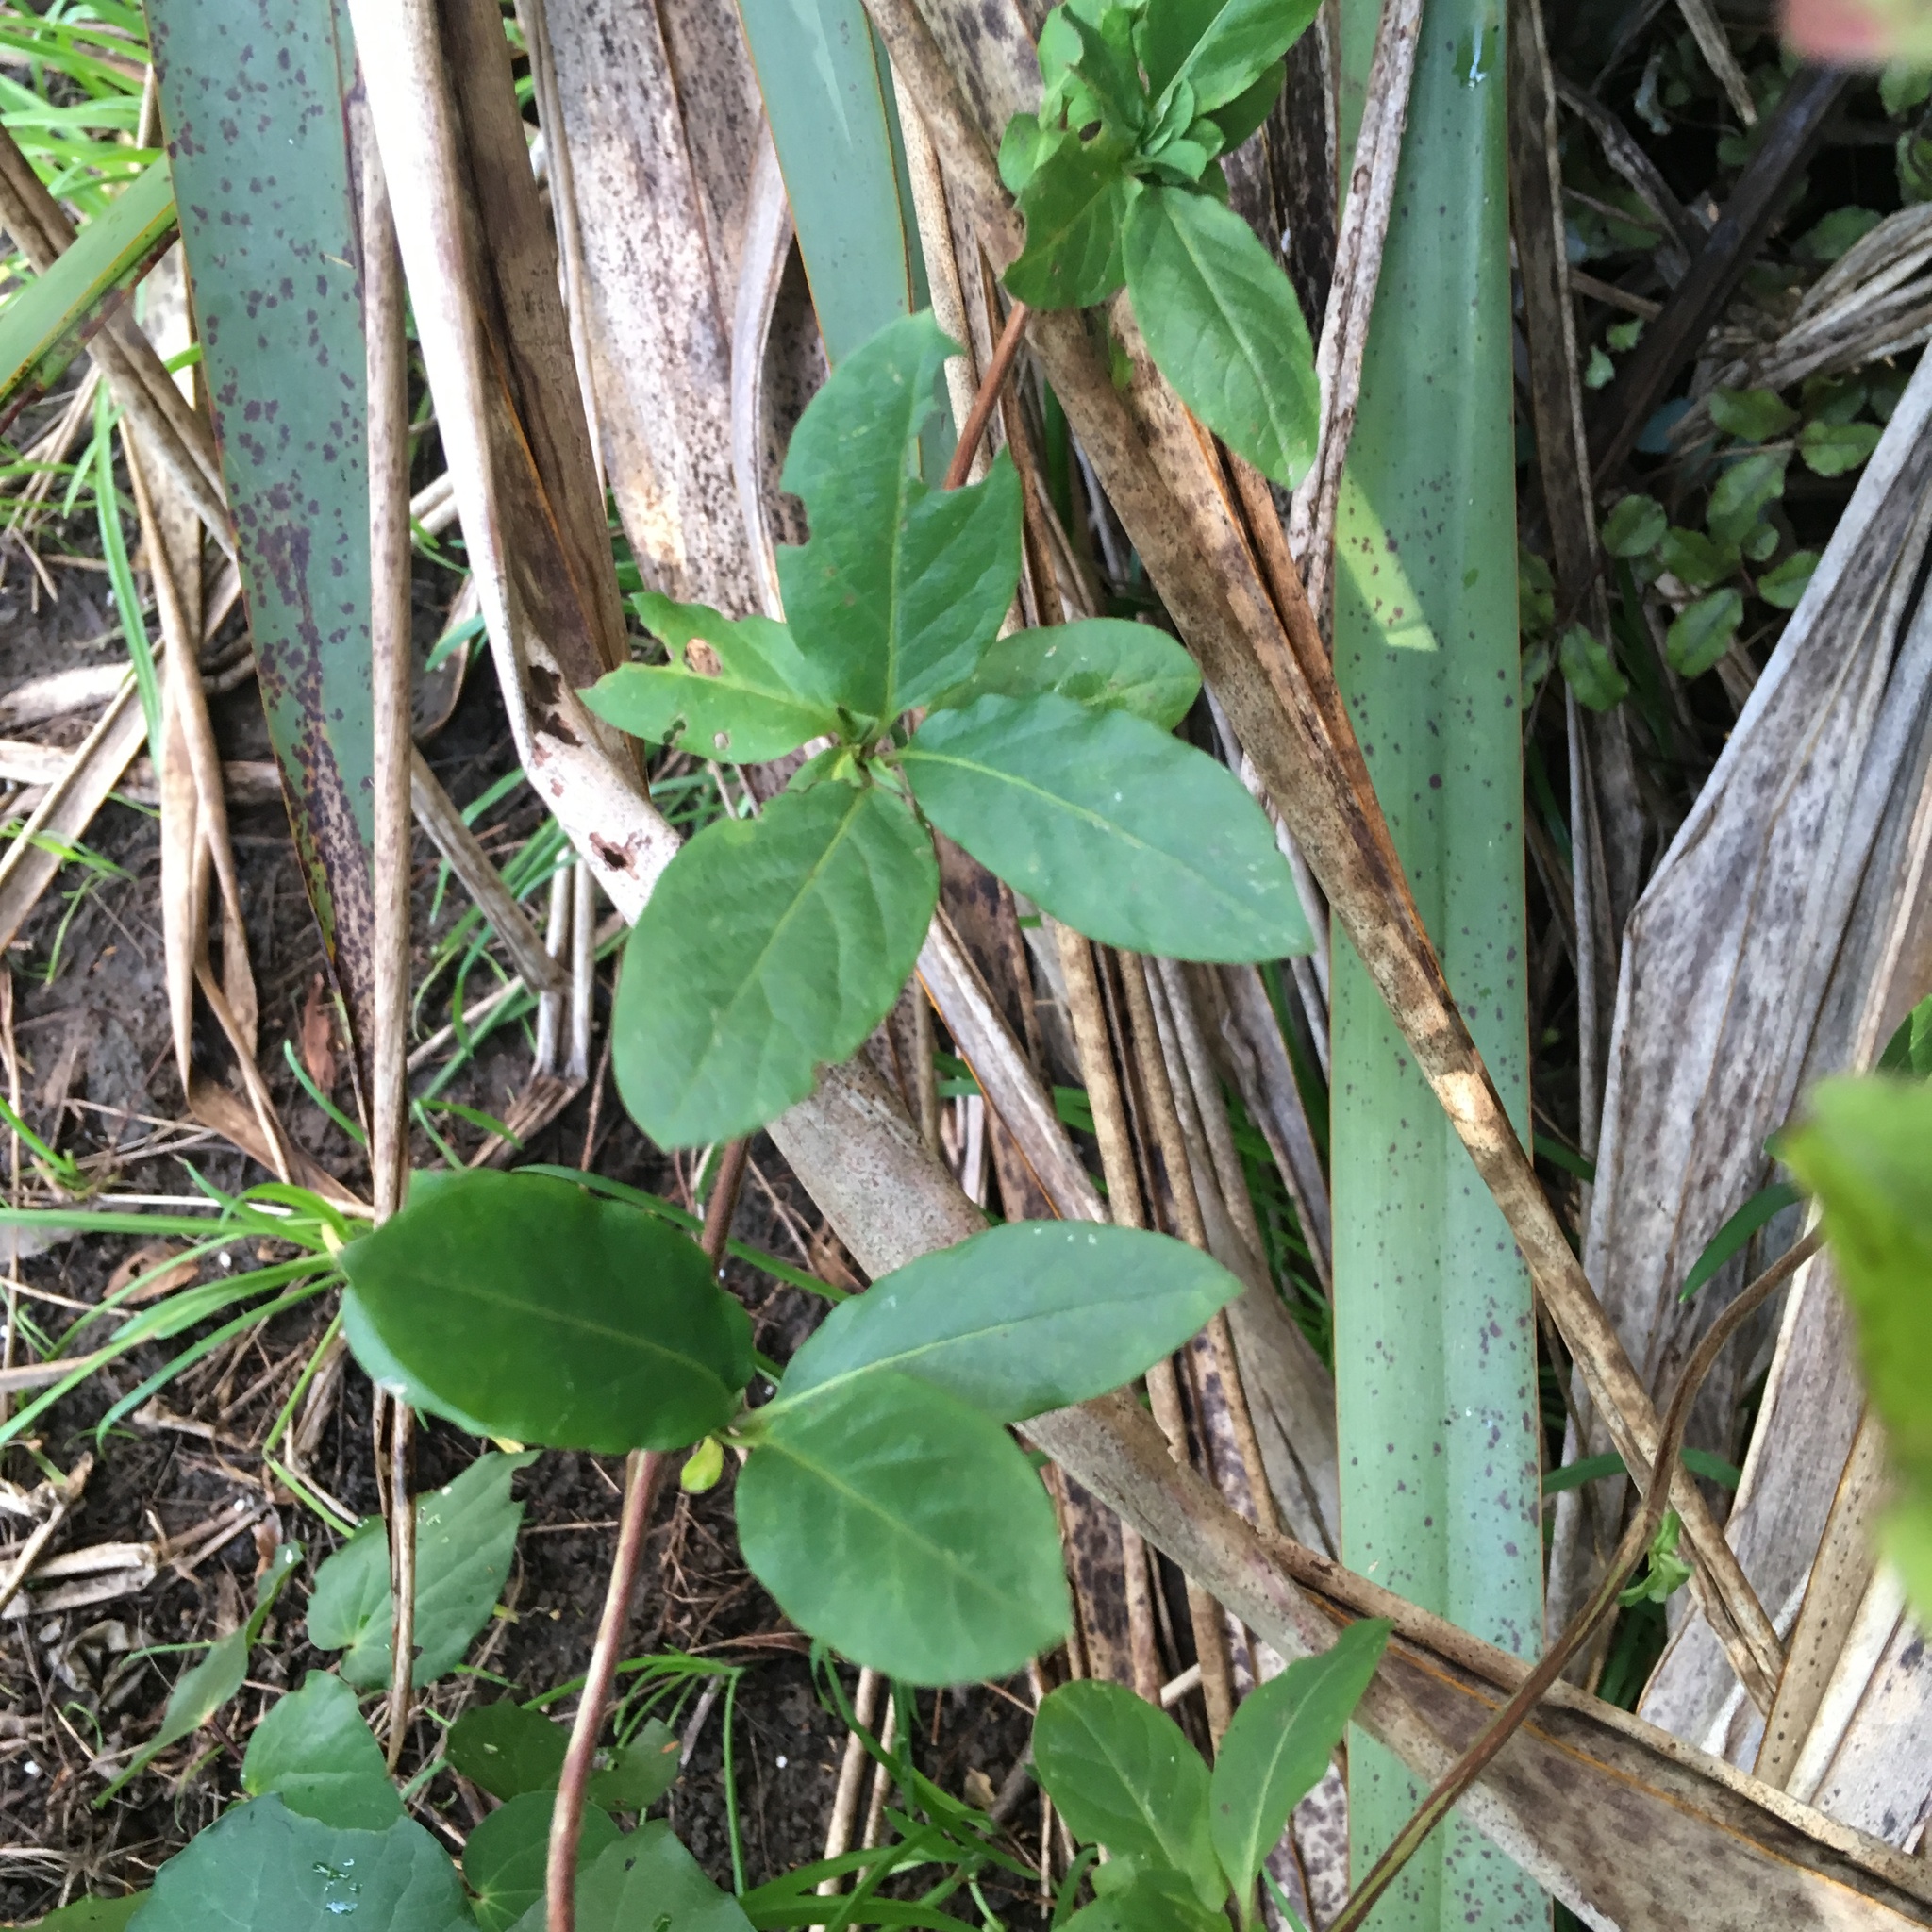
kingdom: Plantae
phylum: Tracheophyta
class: Magnoliopsida
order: Dipsacales
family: Caprifoliaceae
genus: Lonicera
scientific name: Lonicera japonica
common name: Japanese honeysuckle
